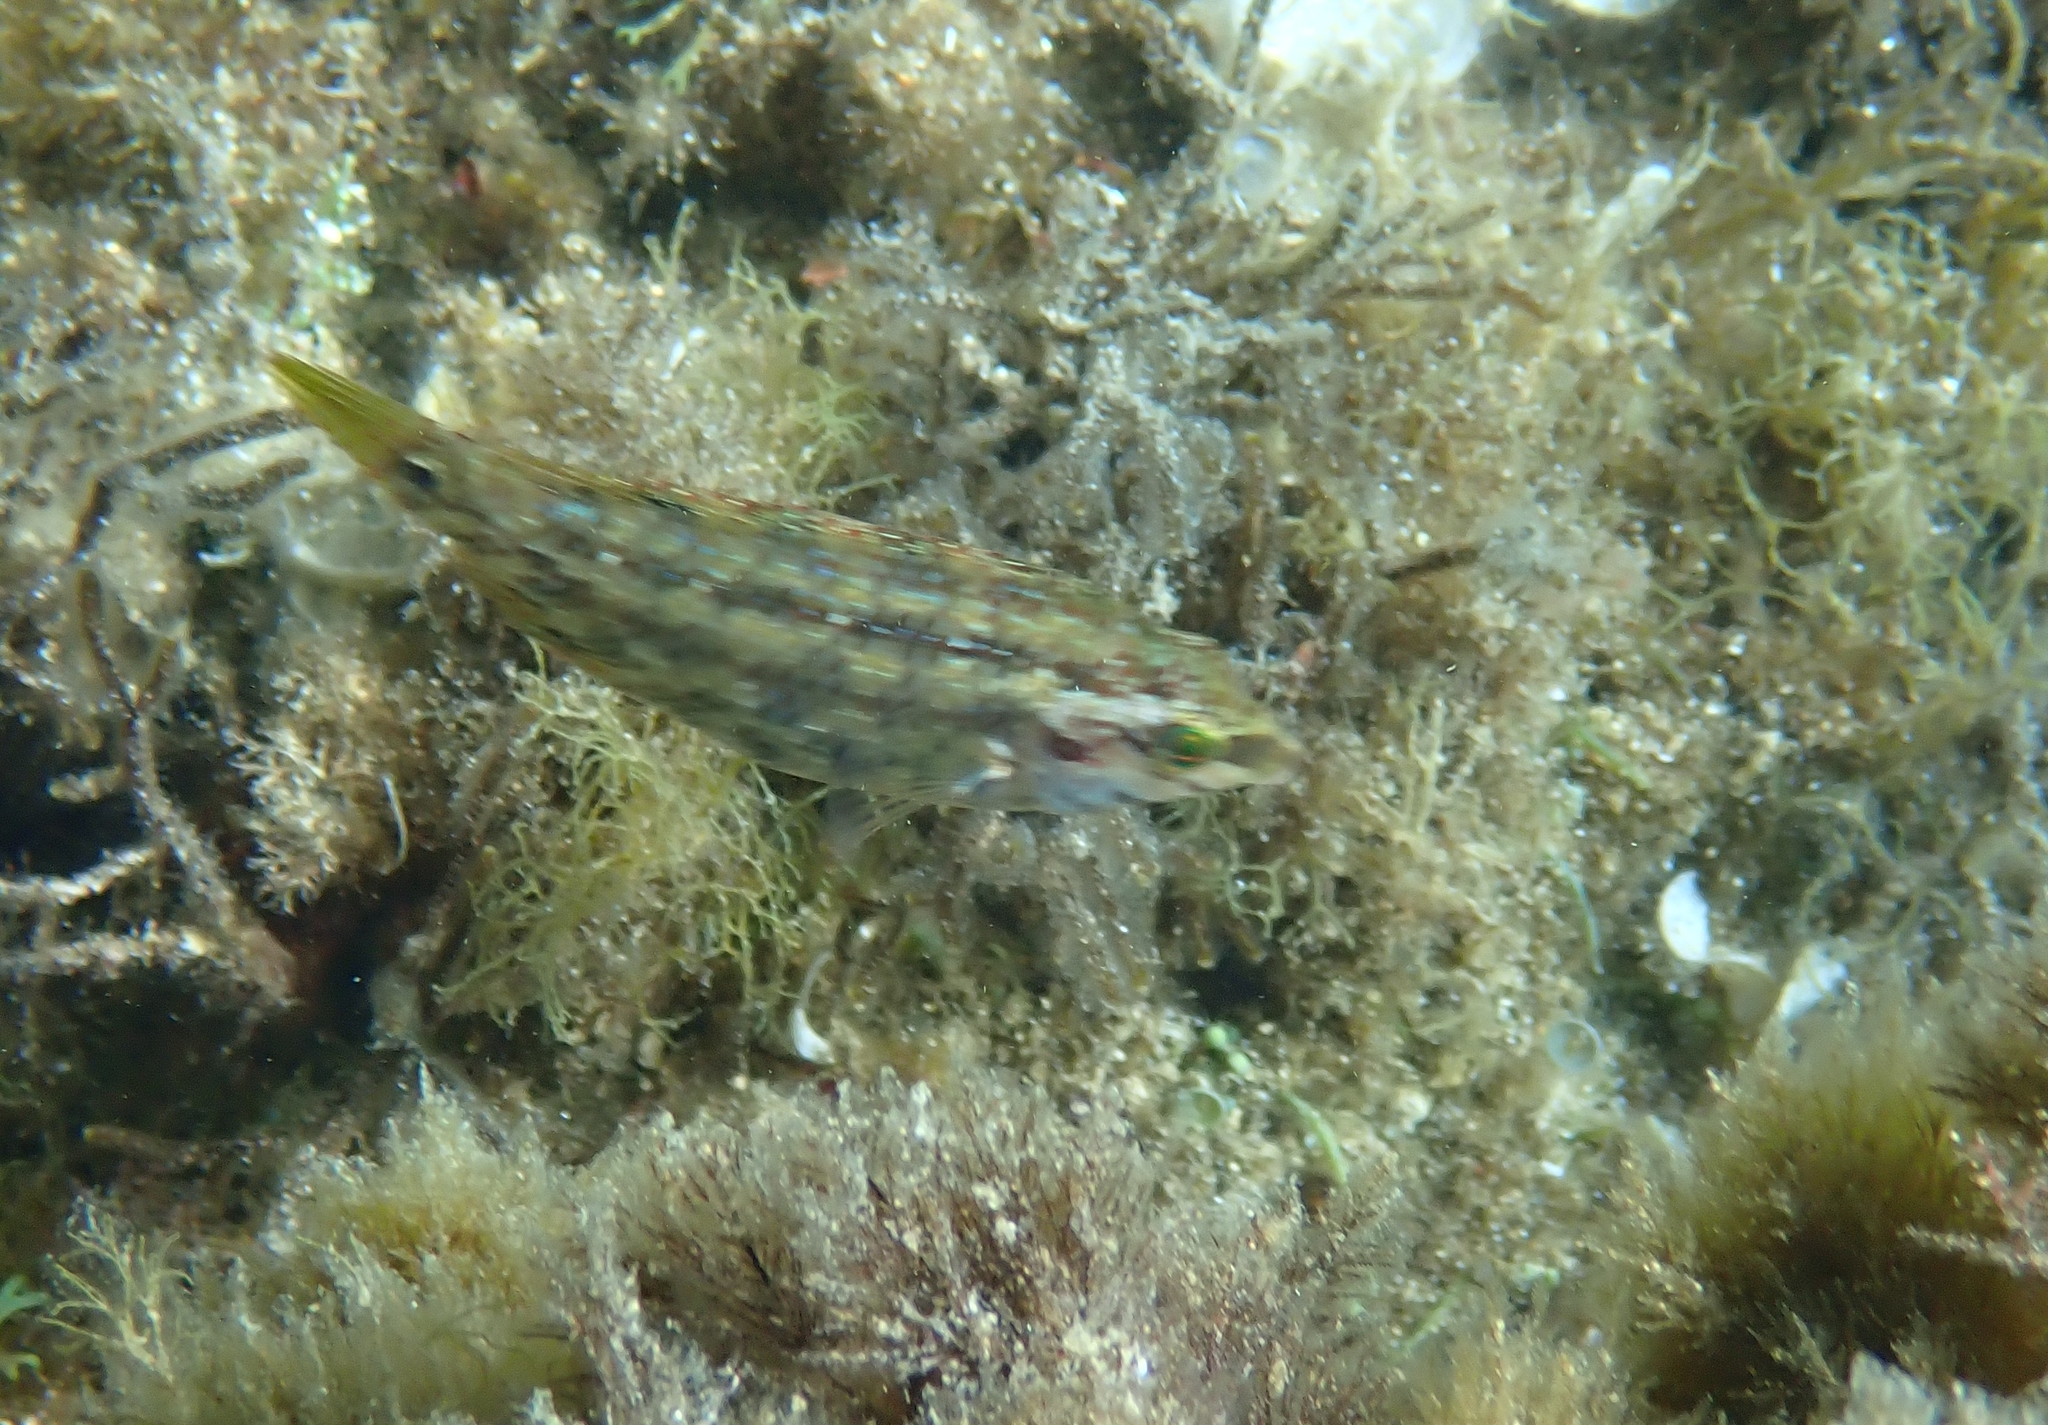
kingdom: Animalia
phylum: Chordata
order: Perciformes
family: Labridae
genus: Symphodus
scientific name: Symphodus roissali
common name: Five-spotted wrasse
